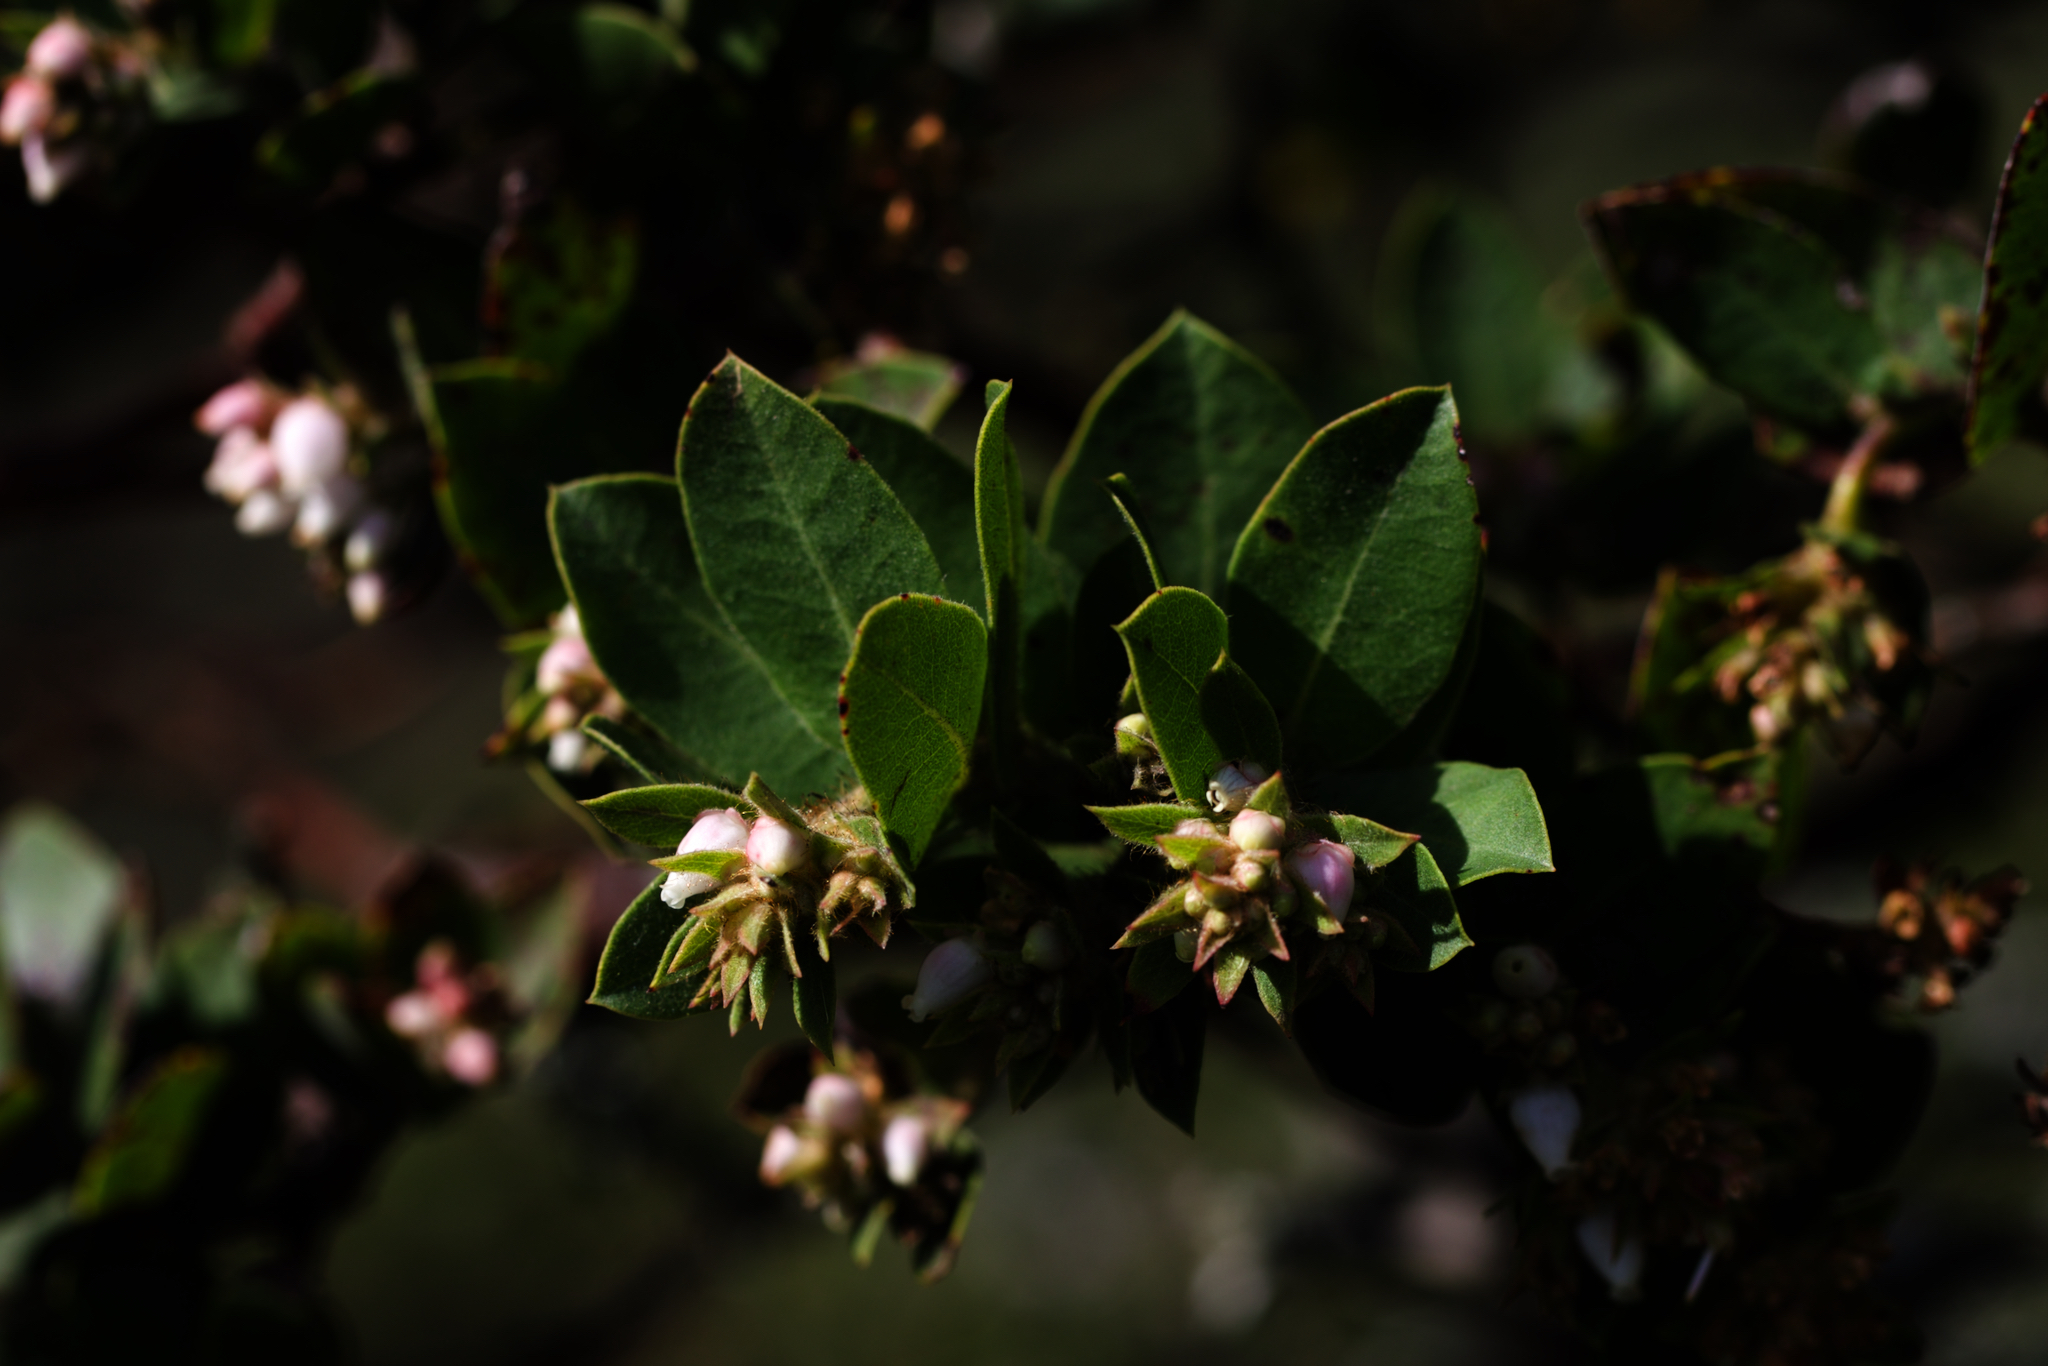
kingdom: Plantae
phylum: Tracheophyta
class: Magnoliopsida
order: Ericales
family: Ericaceae
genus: Arctostaphylos
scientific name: Arctostaphylos montaraensis
